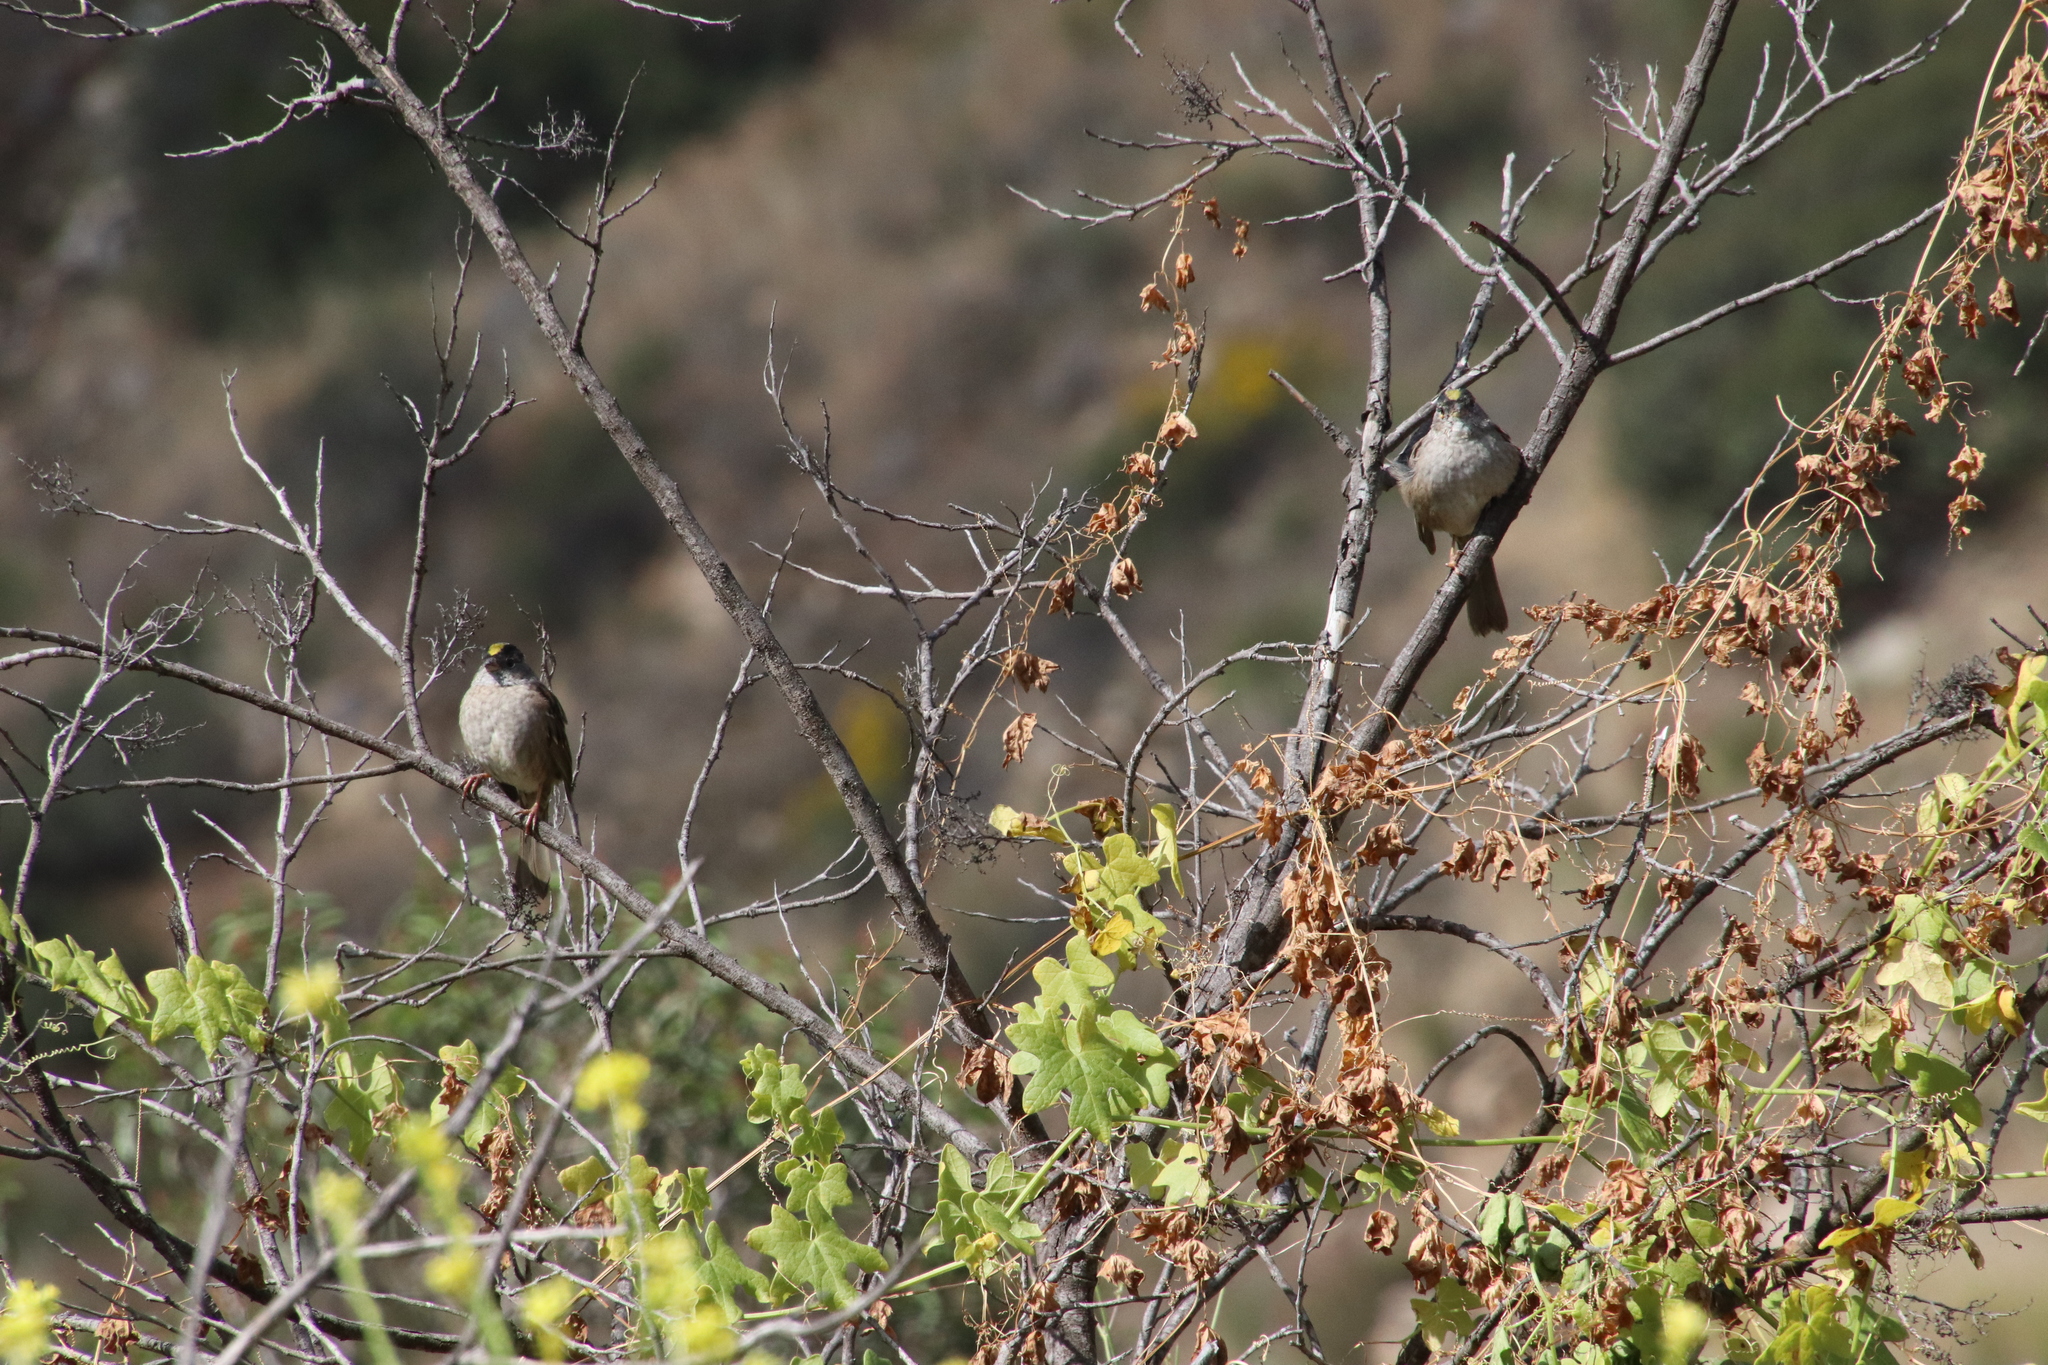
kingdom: Animalia
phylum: Chordata
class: Aves
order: Passeriformes
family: Passerellidae
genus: Zonotrichia
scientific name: Zonotrichia atricapilla
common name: Golden-crowned sparrow
